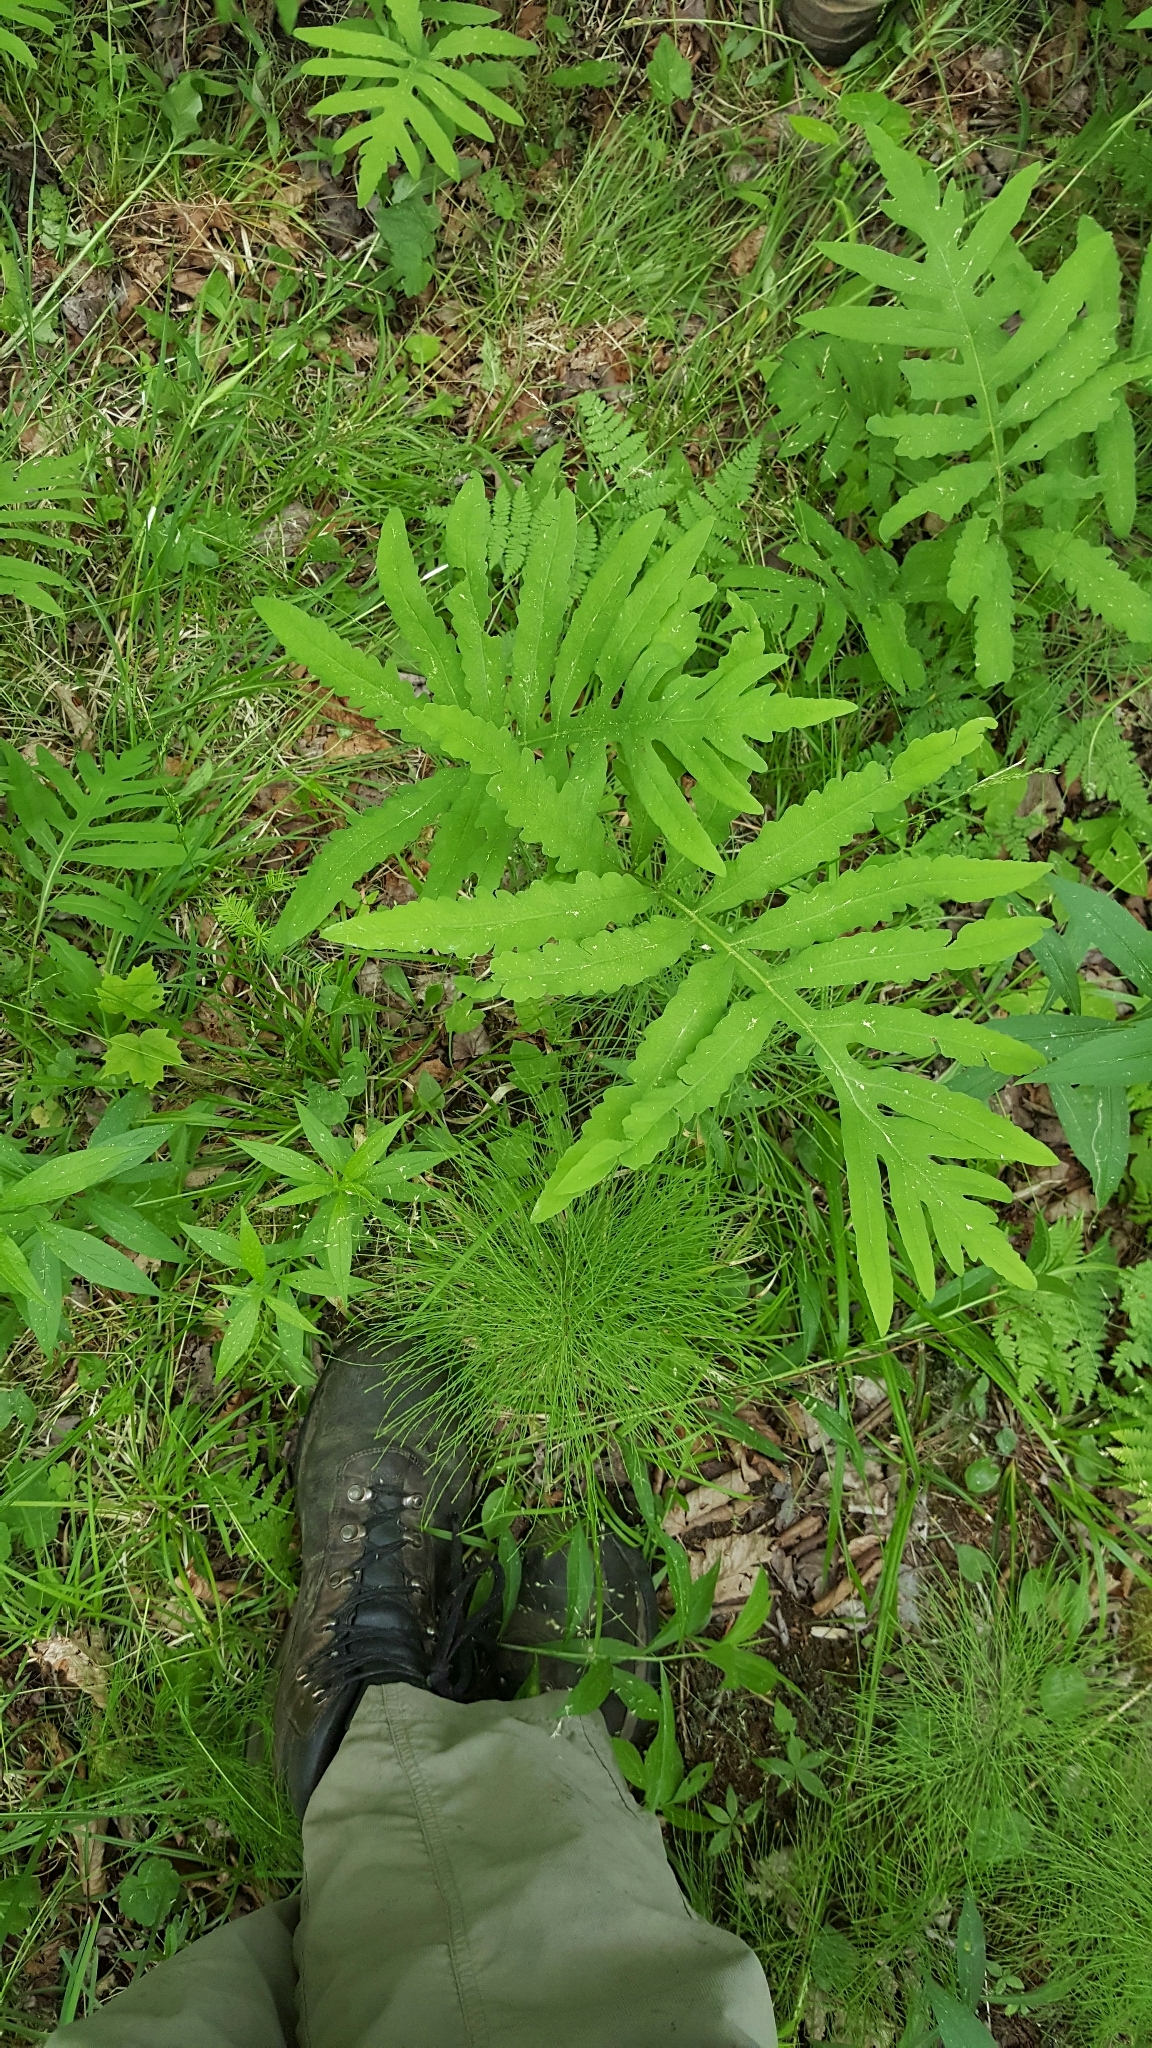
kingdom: Plantae
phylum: Tracheophyta
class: Polypodiopsida
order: Polypodiales
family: Onocleaceae
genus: Onoclea
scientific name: Onoclea sensibilis
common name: Sensitive fern
